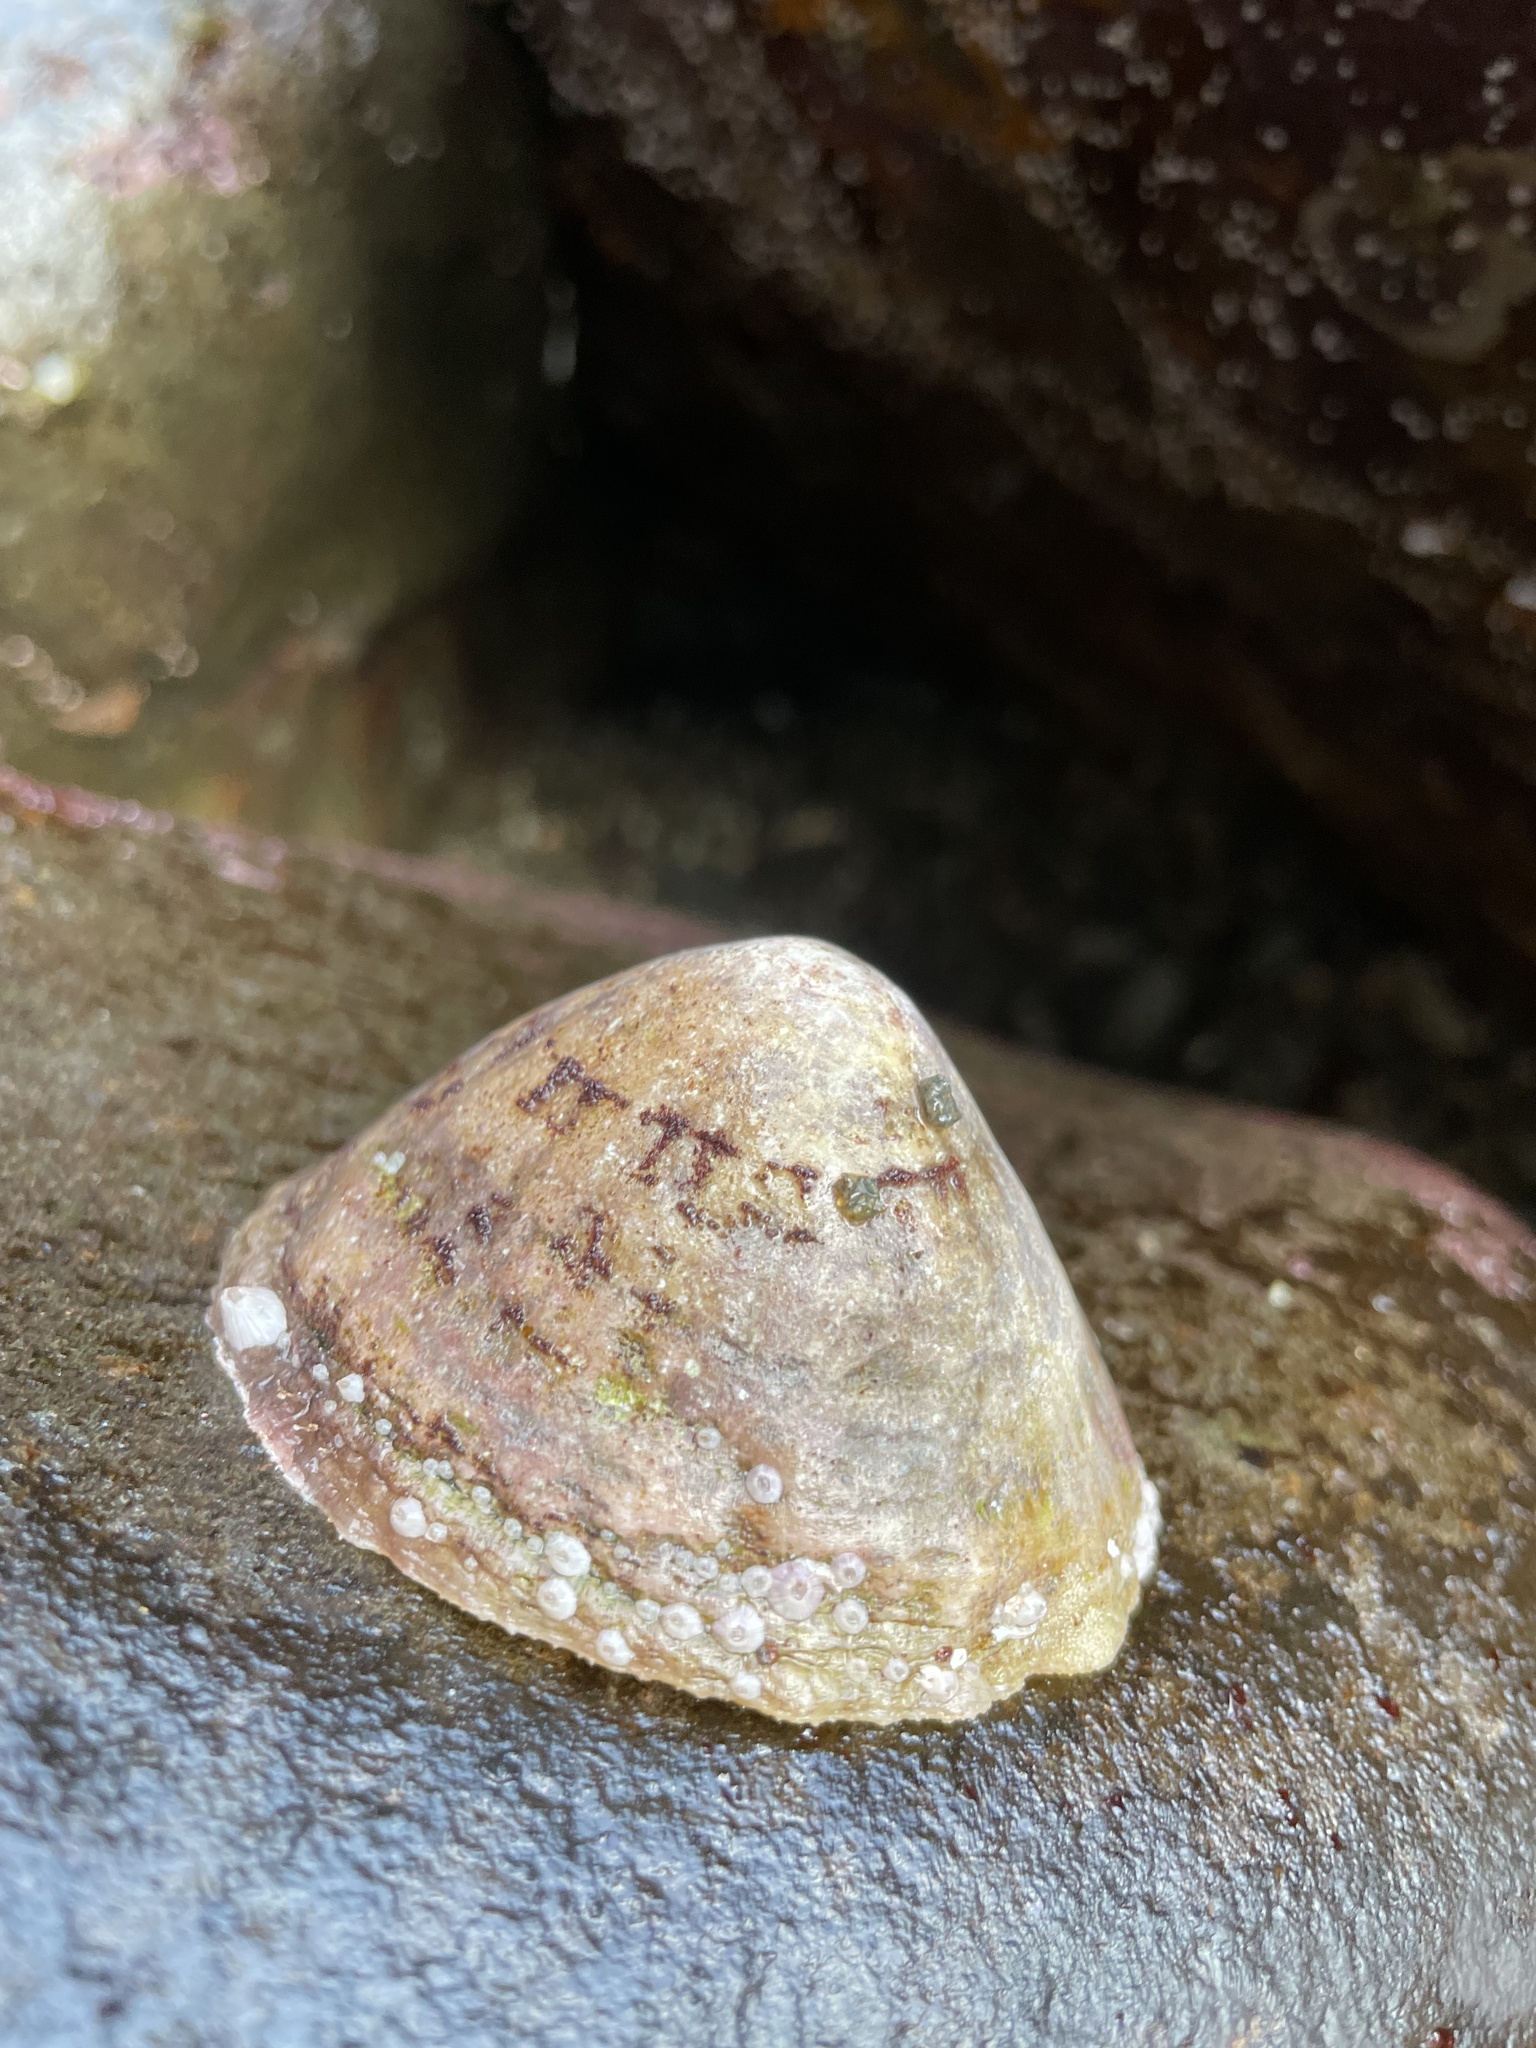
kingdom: Animalia
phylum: Mollusca
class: Gastropoda
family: Patellidae
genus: Patella
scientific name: Patella vulgata
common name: Common limpet
